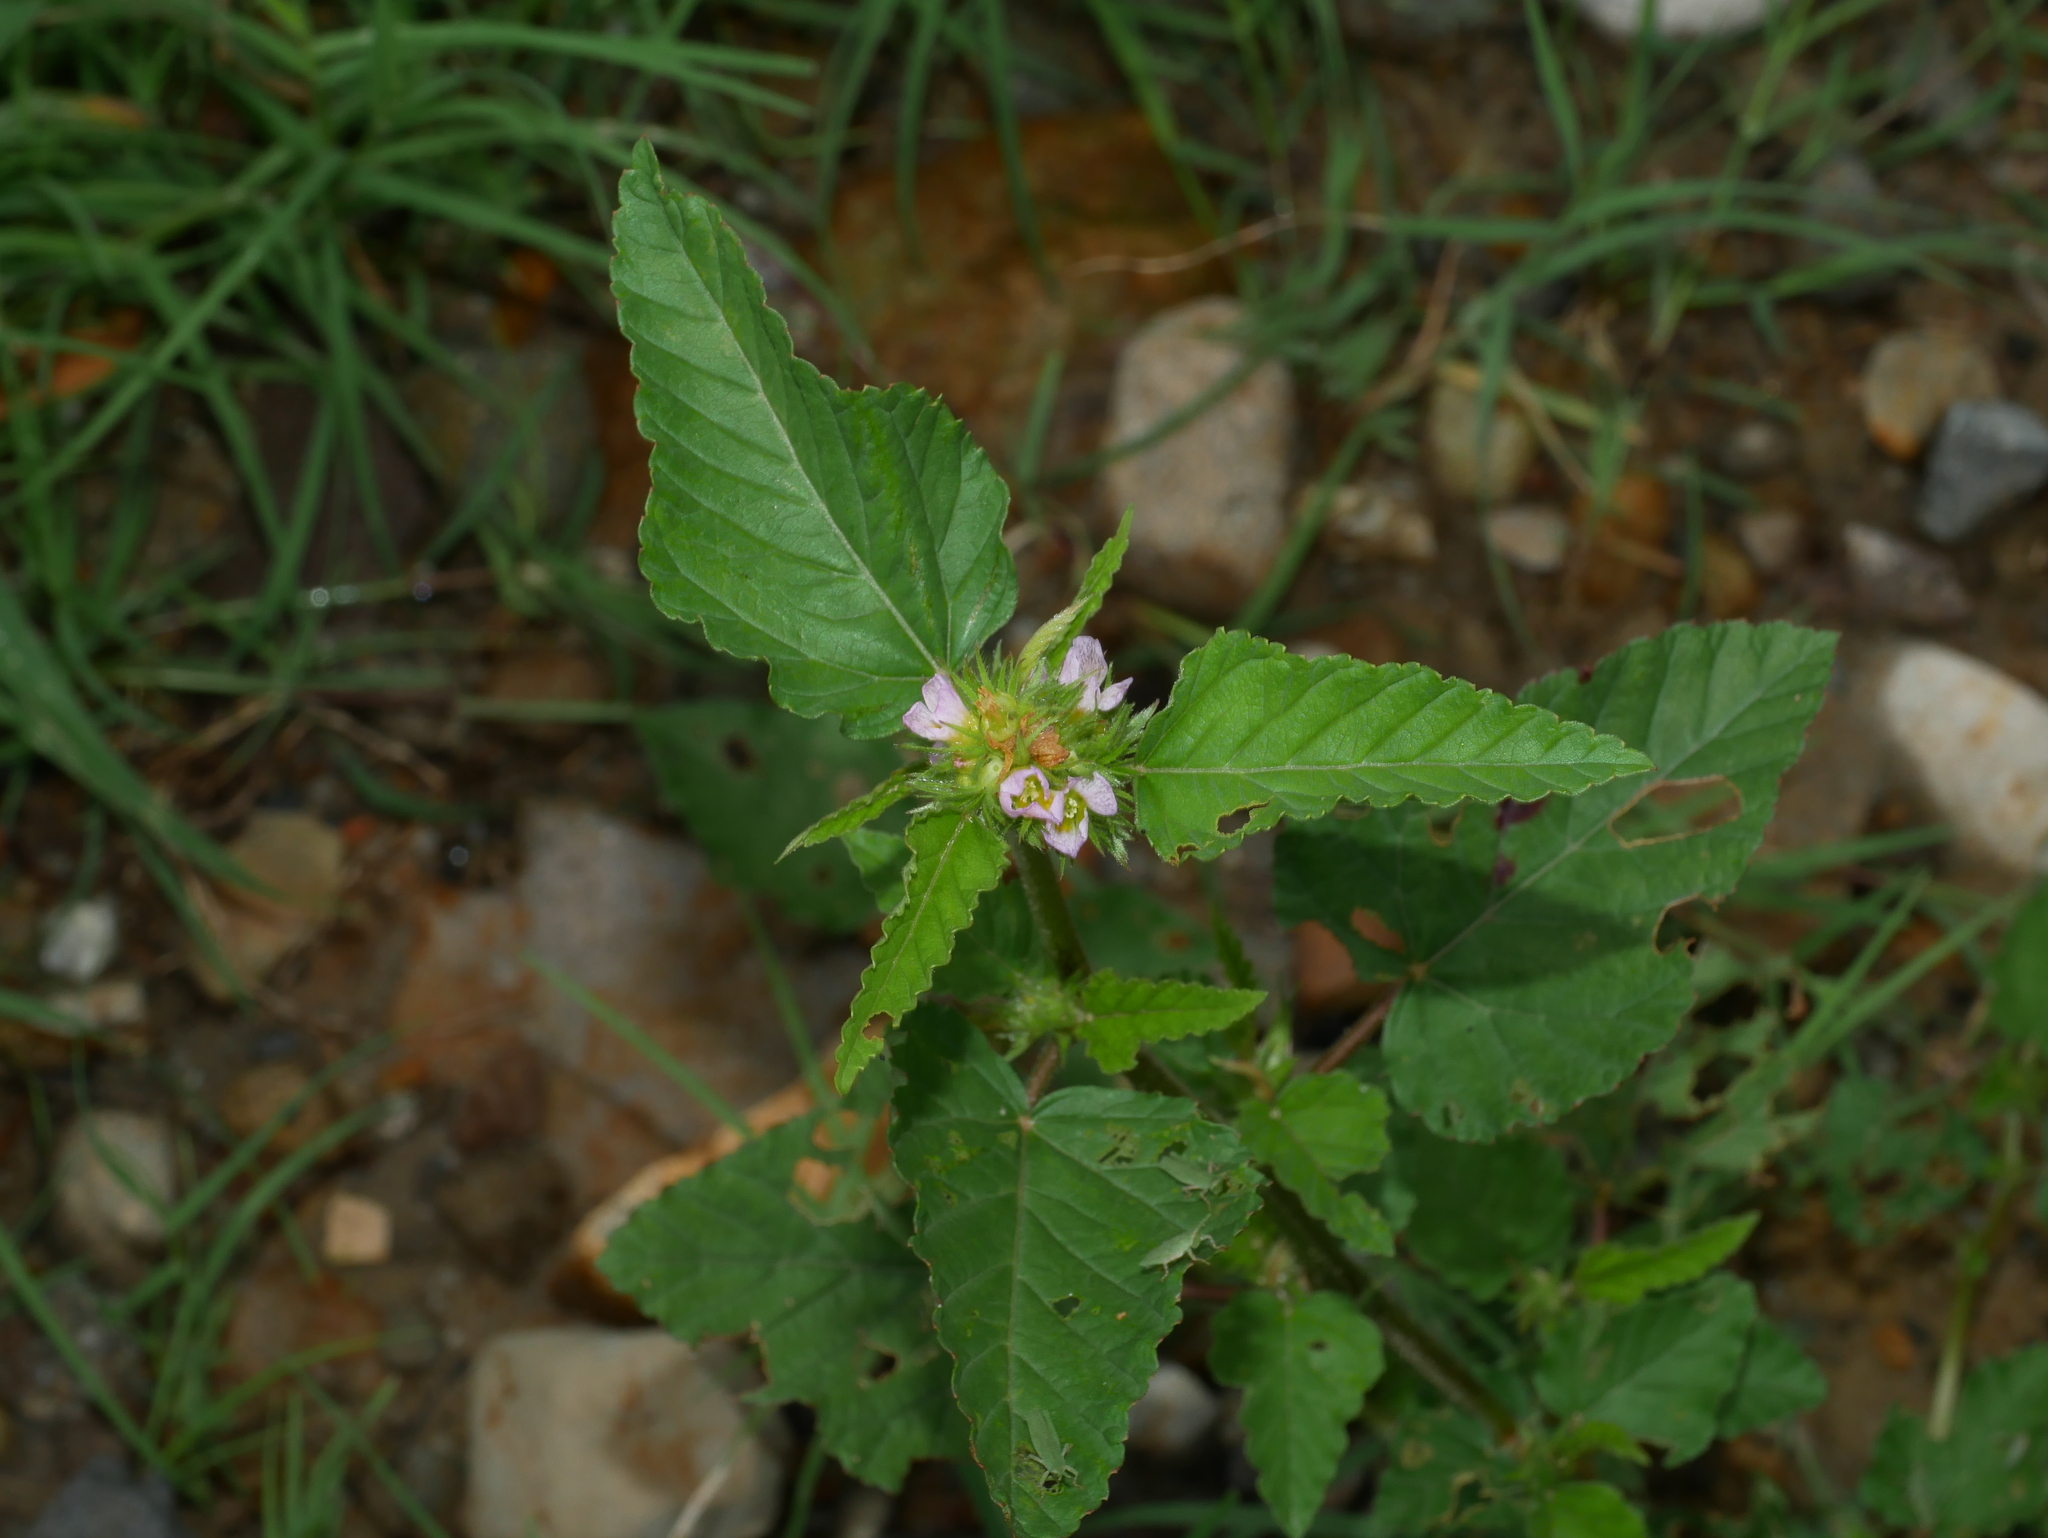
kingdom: Plantae
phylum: Tracheophyta
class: Magnoliopsida
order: Malvales
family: Malvaceae
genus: Melochia
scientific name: Melochia corchorifolia
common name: Chocolateweed
